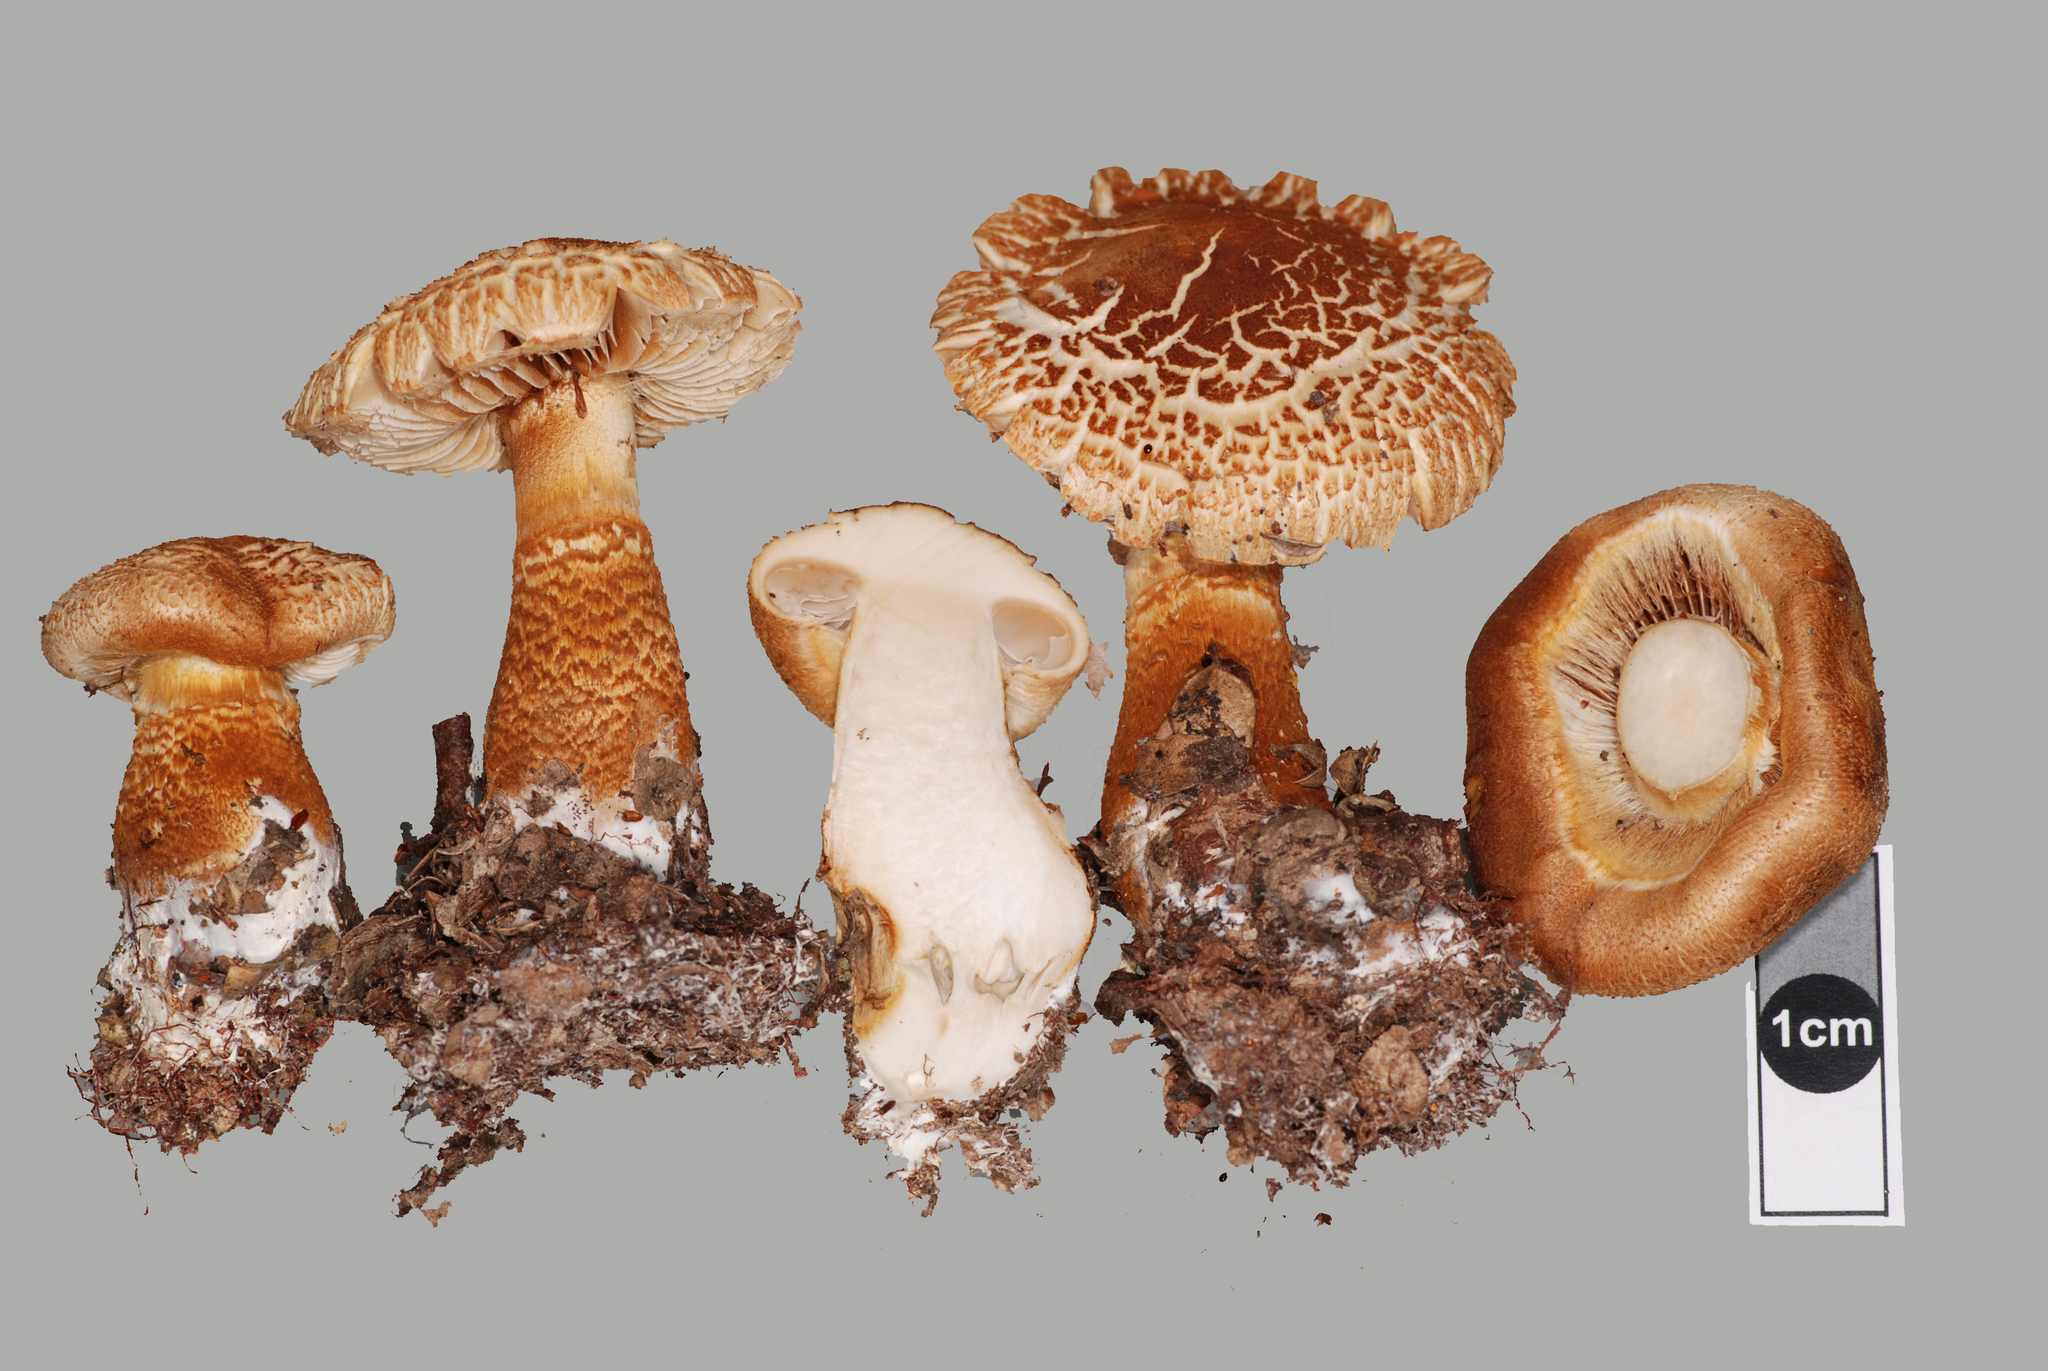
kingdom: Fungi
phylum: Basidiomycota
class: Agaricomycetes
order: Agaricales
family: Cortinariaceae
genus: Thaxterogaster
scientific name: Thaxterogaster castoreus
